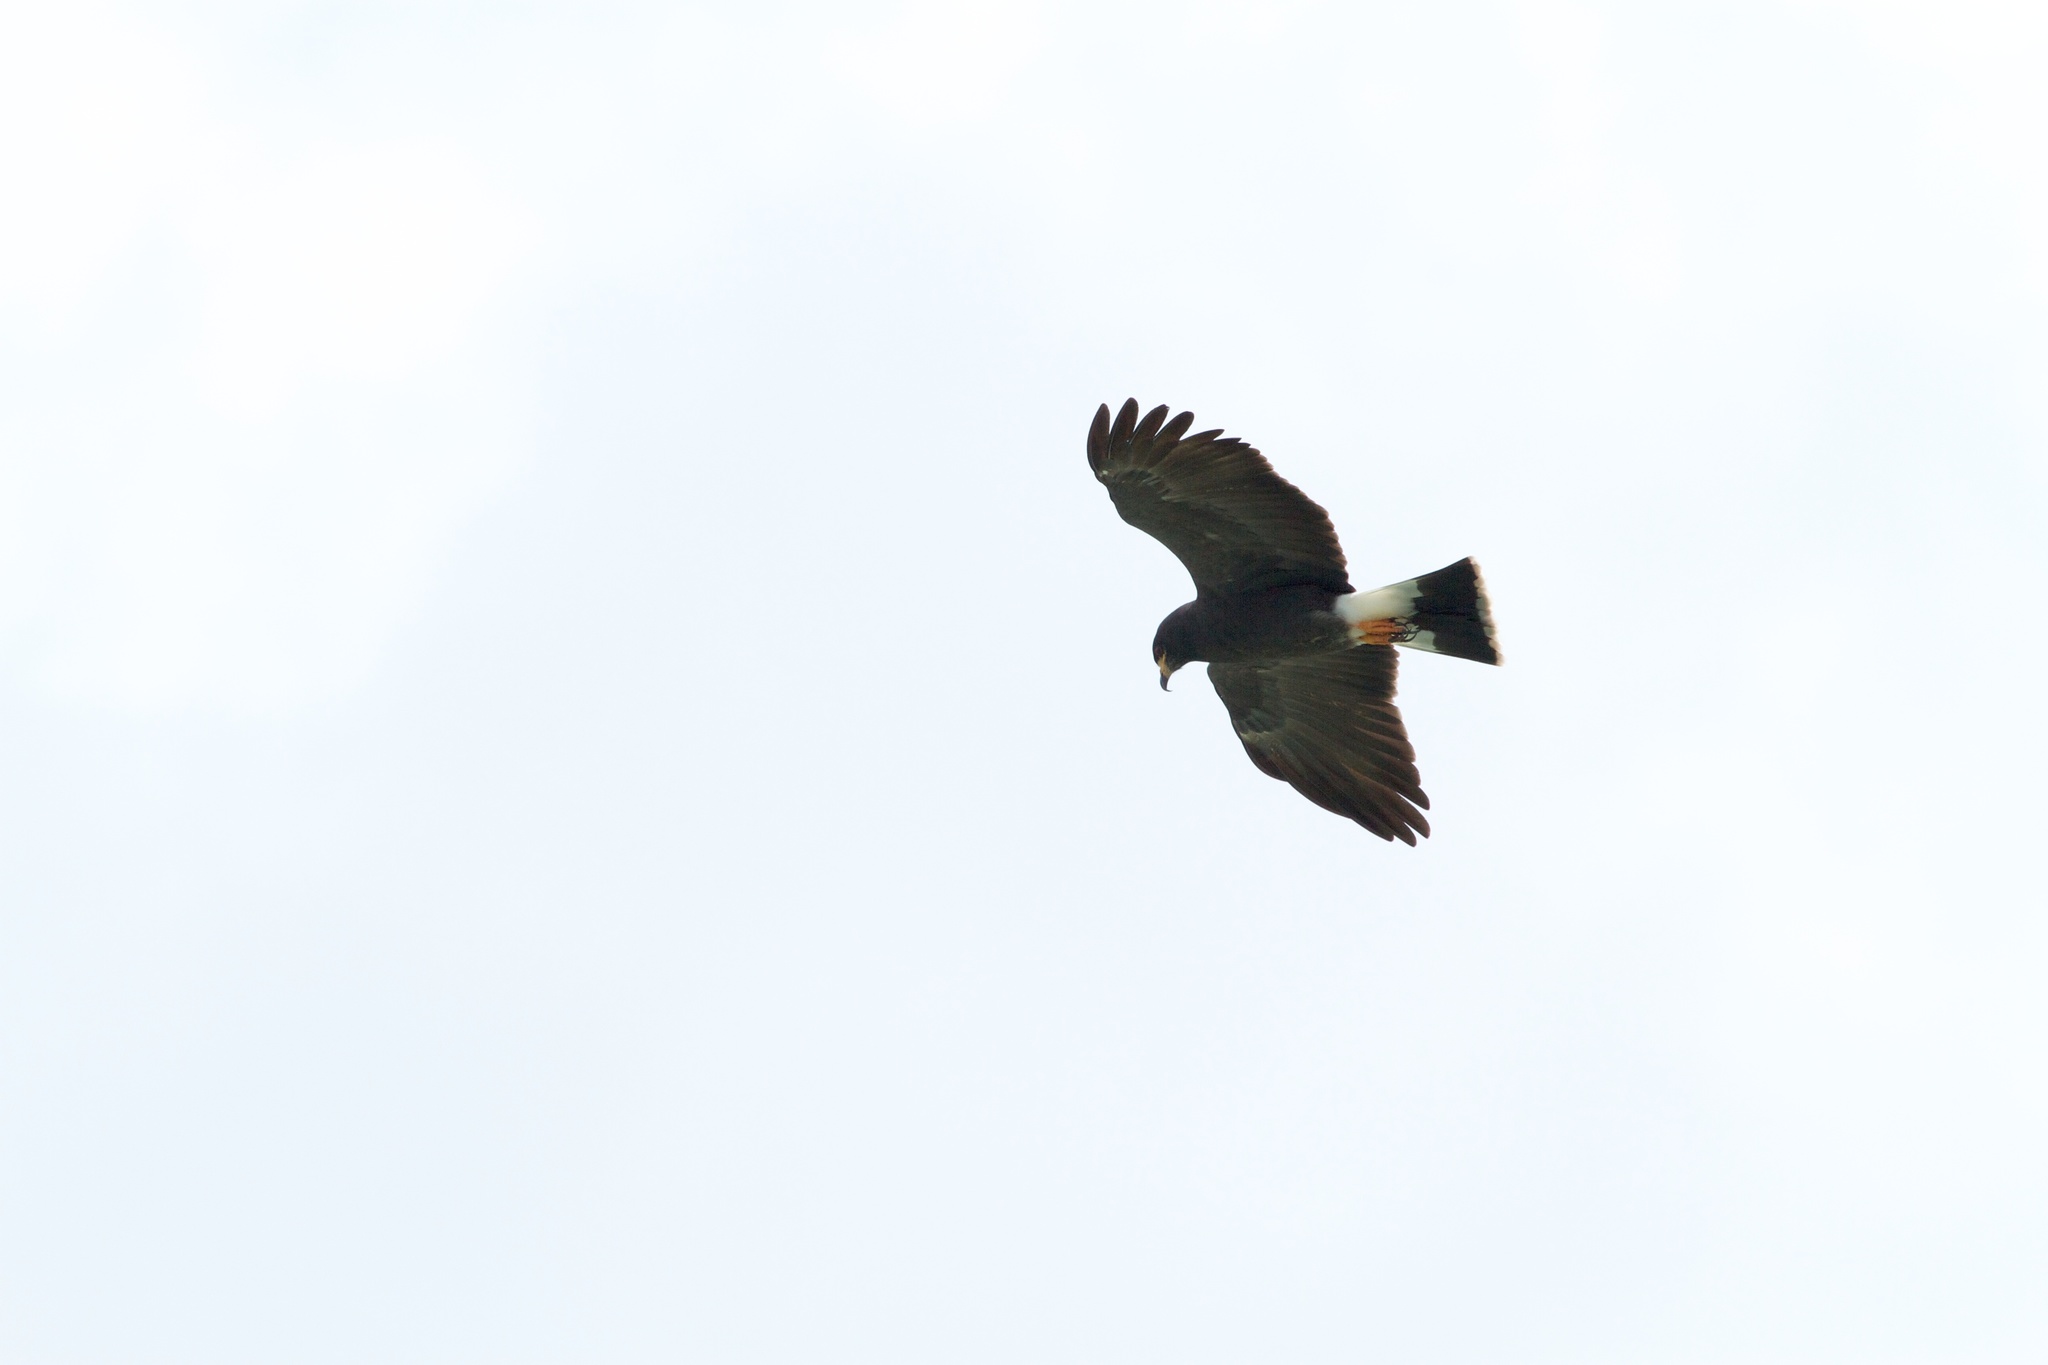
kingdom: Animalia
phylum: Chordata
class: Aves
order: Accipitriformes
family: Accipitridae
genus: Rostrhamus
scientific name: Rostrhamus sociabilis
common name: Snail kite
